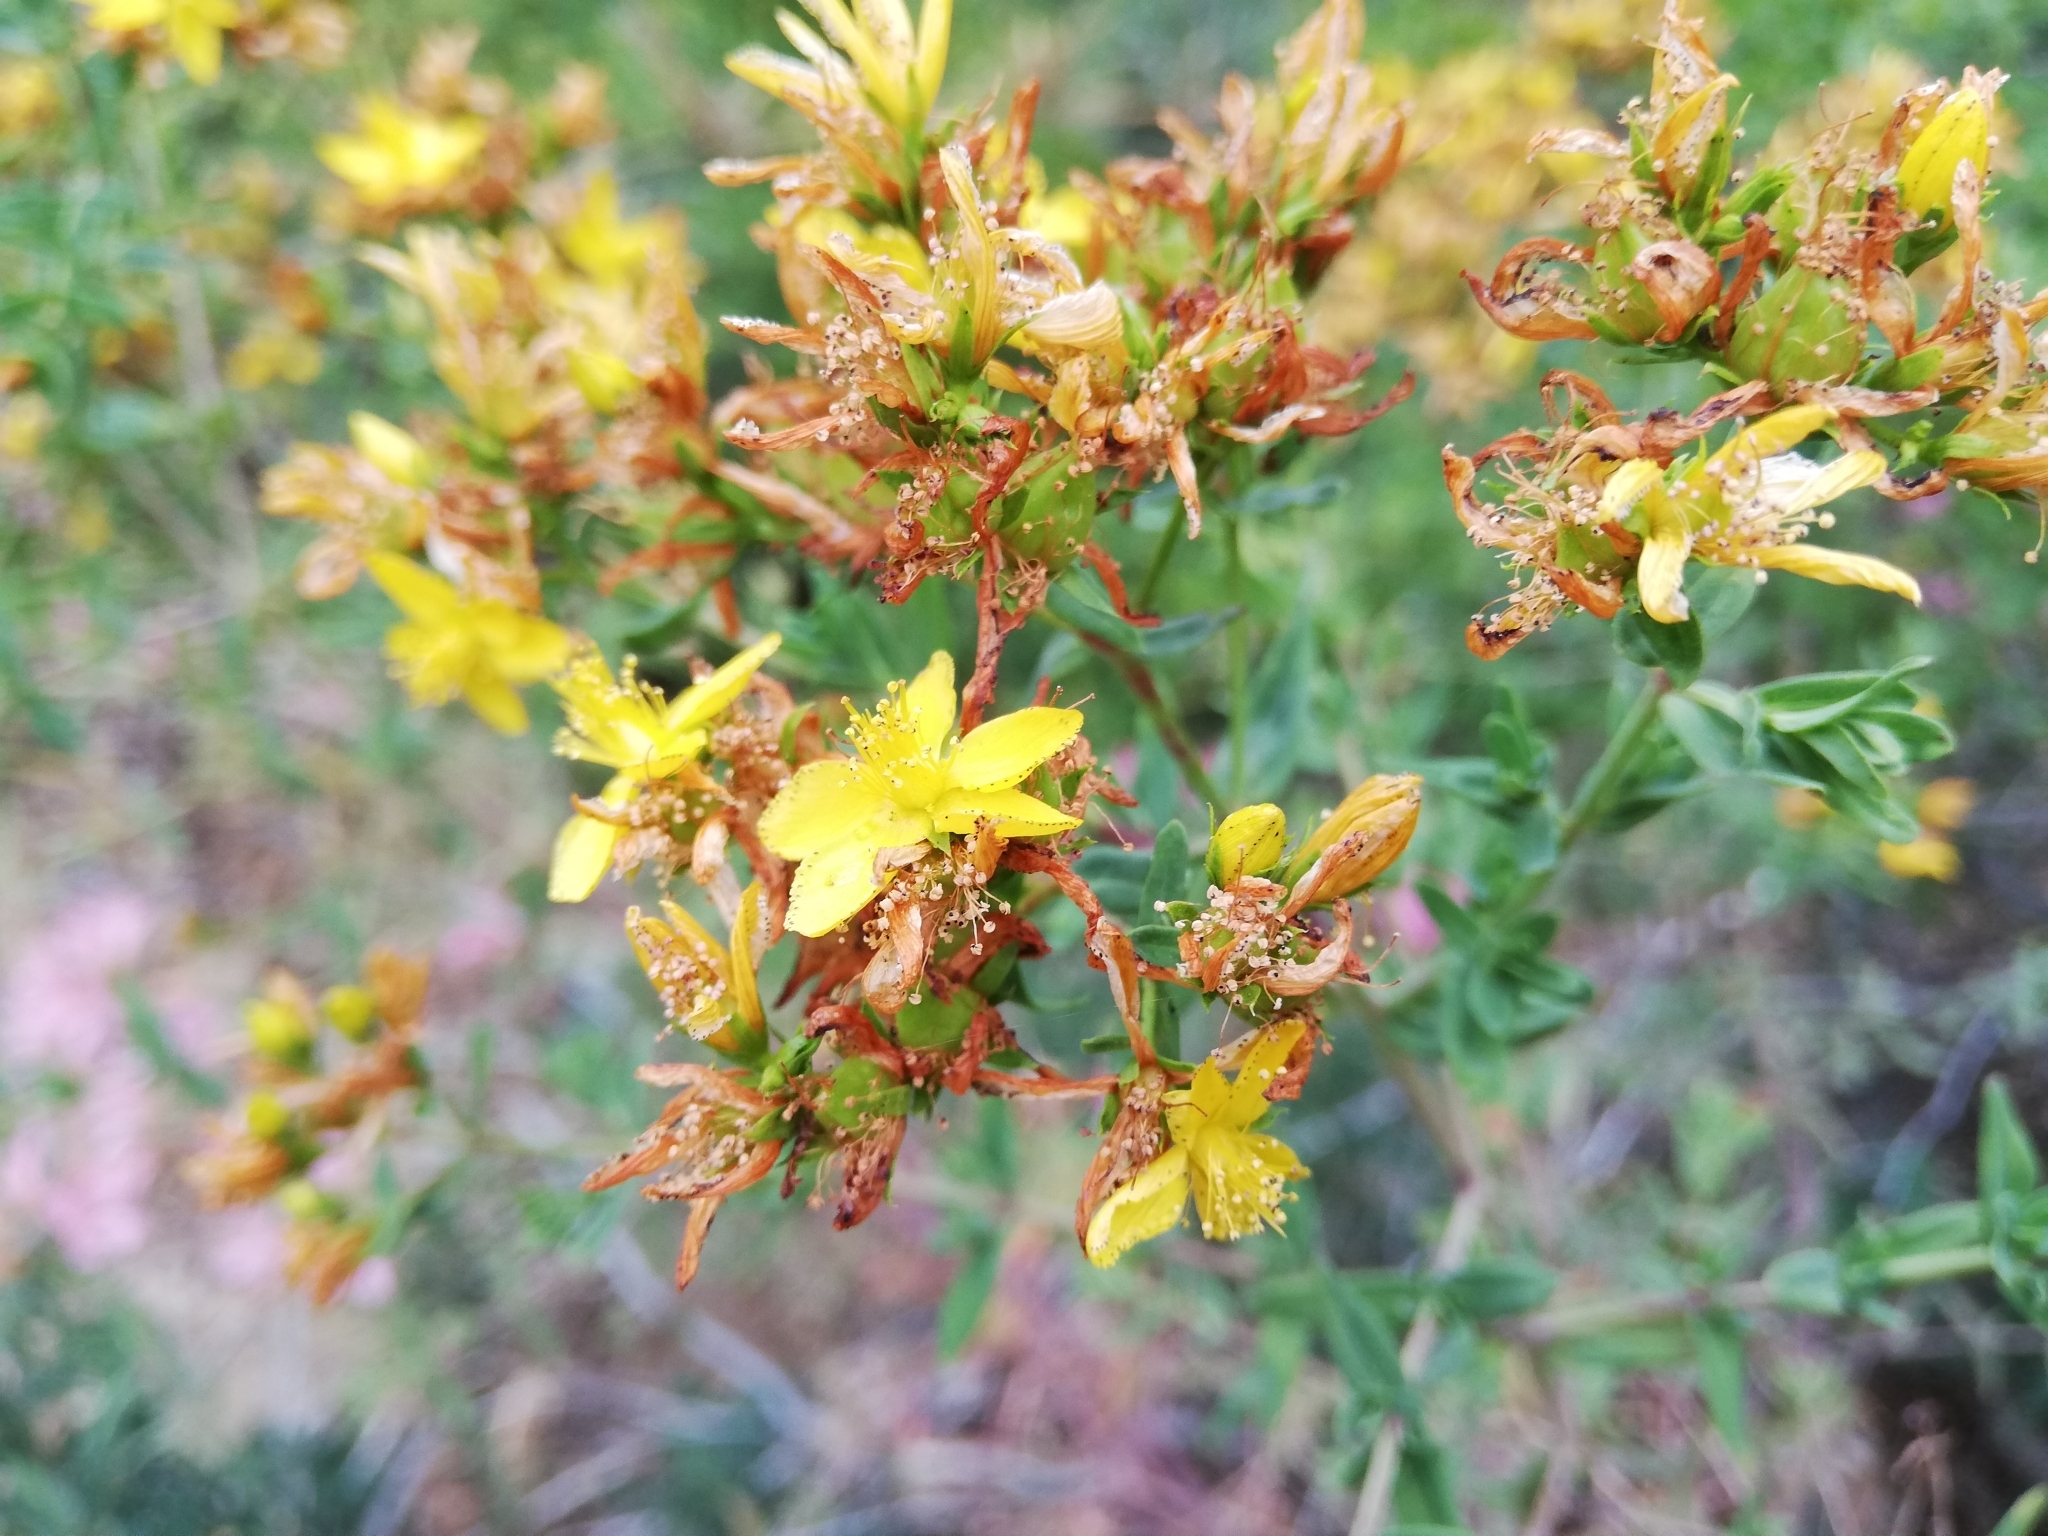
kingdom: Plantae
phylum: Tracheophyta
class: Magnoliopsida
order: Malpighiales
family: Hypericaceae
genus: Hypericum
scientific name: Hypericum perforatum
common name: Common st. johnswort
